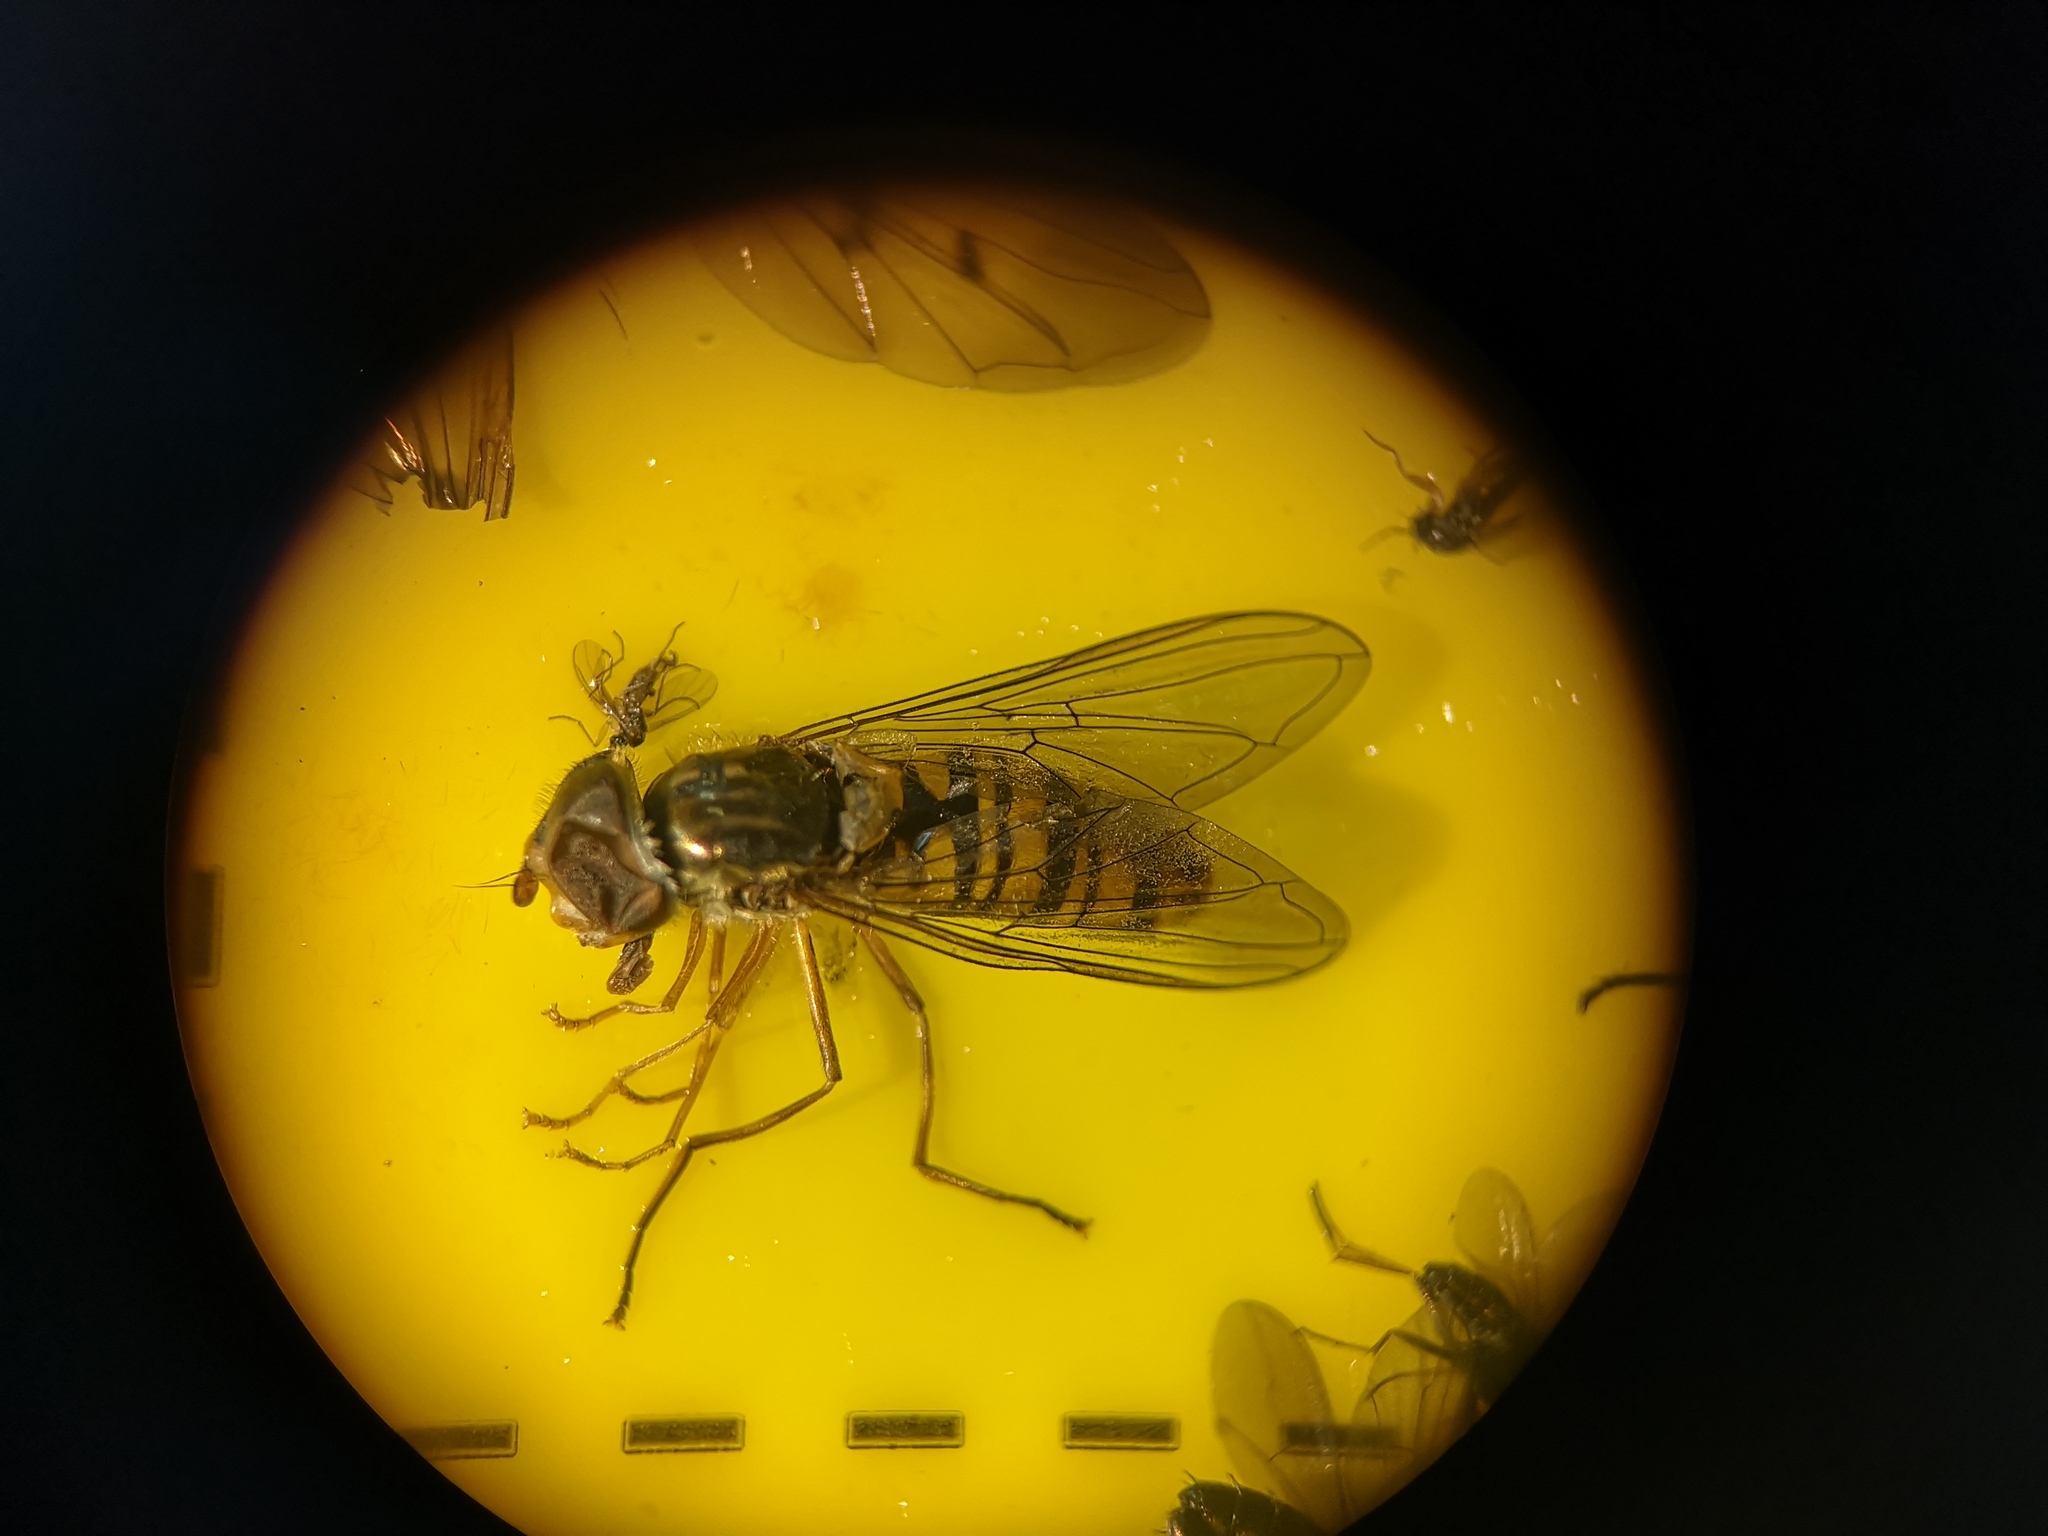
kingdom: Animalia
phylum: Arthropoda
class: Insecta
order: Diptera
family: Syrphidae
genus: Episyrphus
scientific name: Episyrphus balteatus
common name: Marmalade hoverfly
